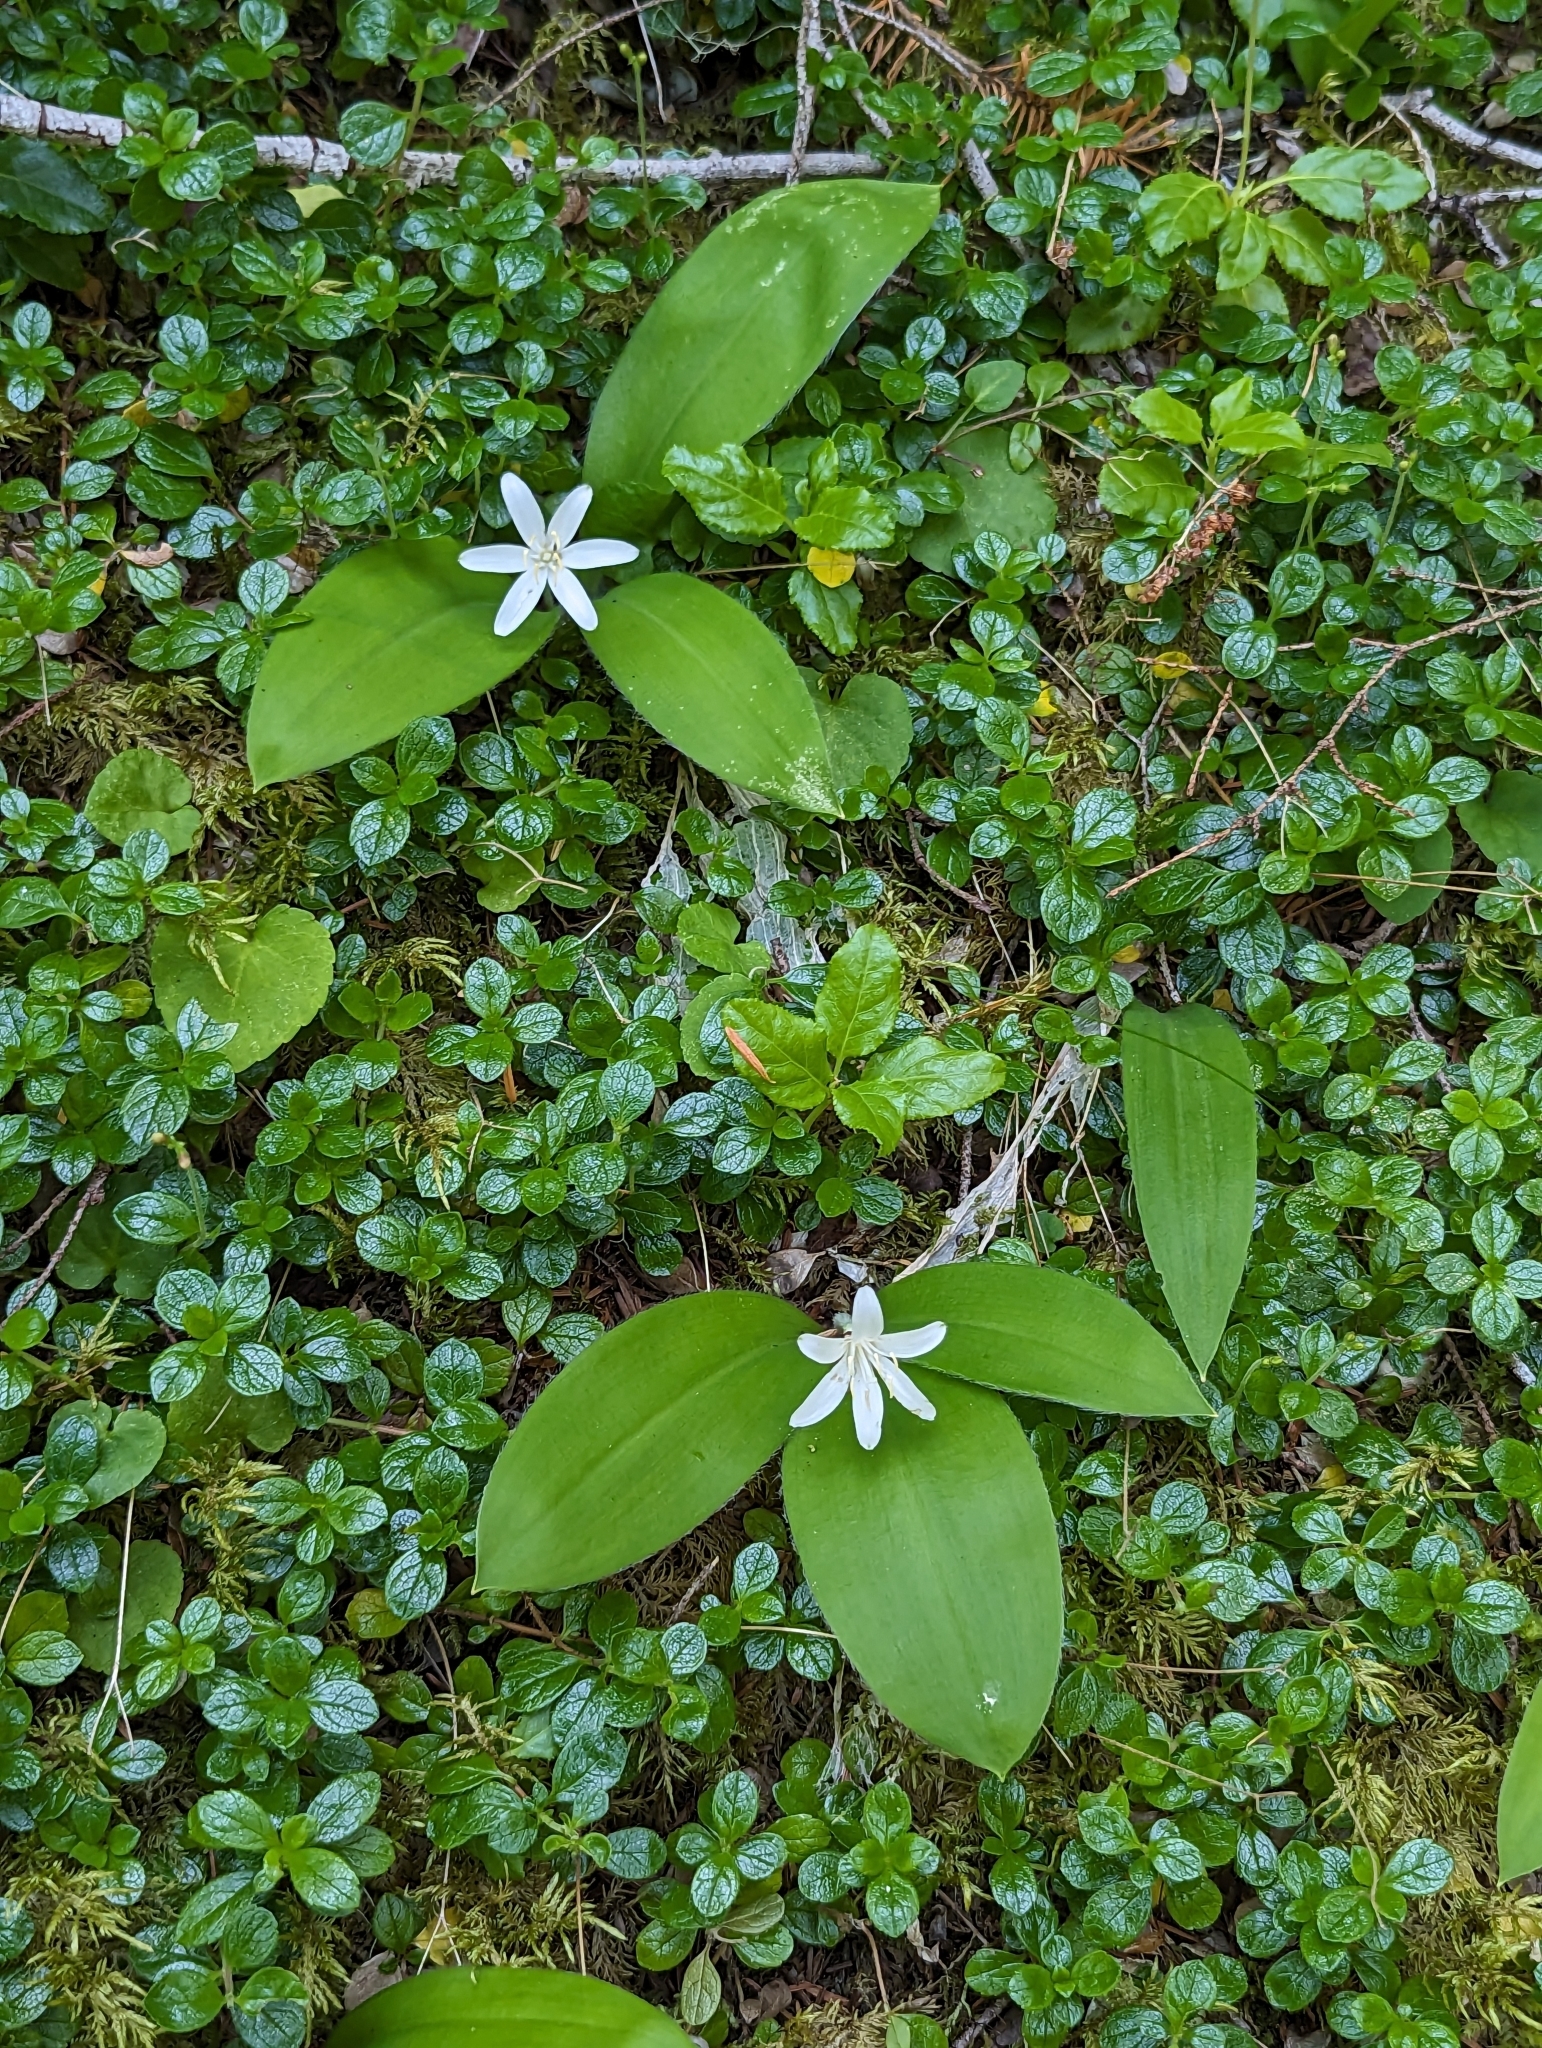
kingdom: Plantae
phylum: Tracheophyta
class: Liliopsida
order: Liliales
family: Liliaceae
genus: Clintonia
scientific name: Clintonia uniflora
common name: Queen's cup
